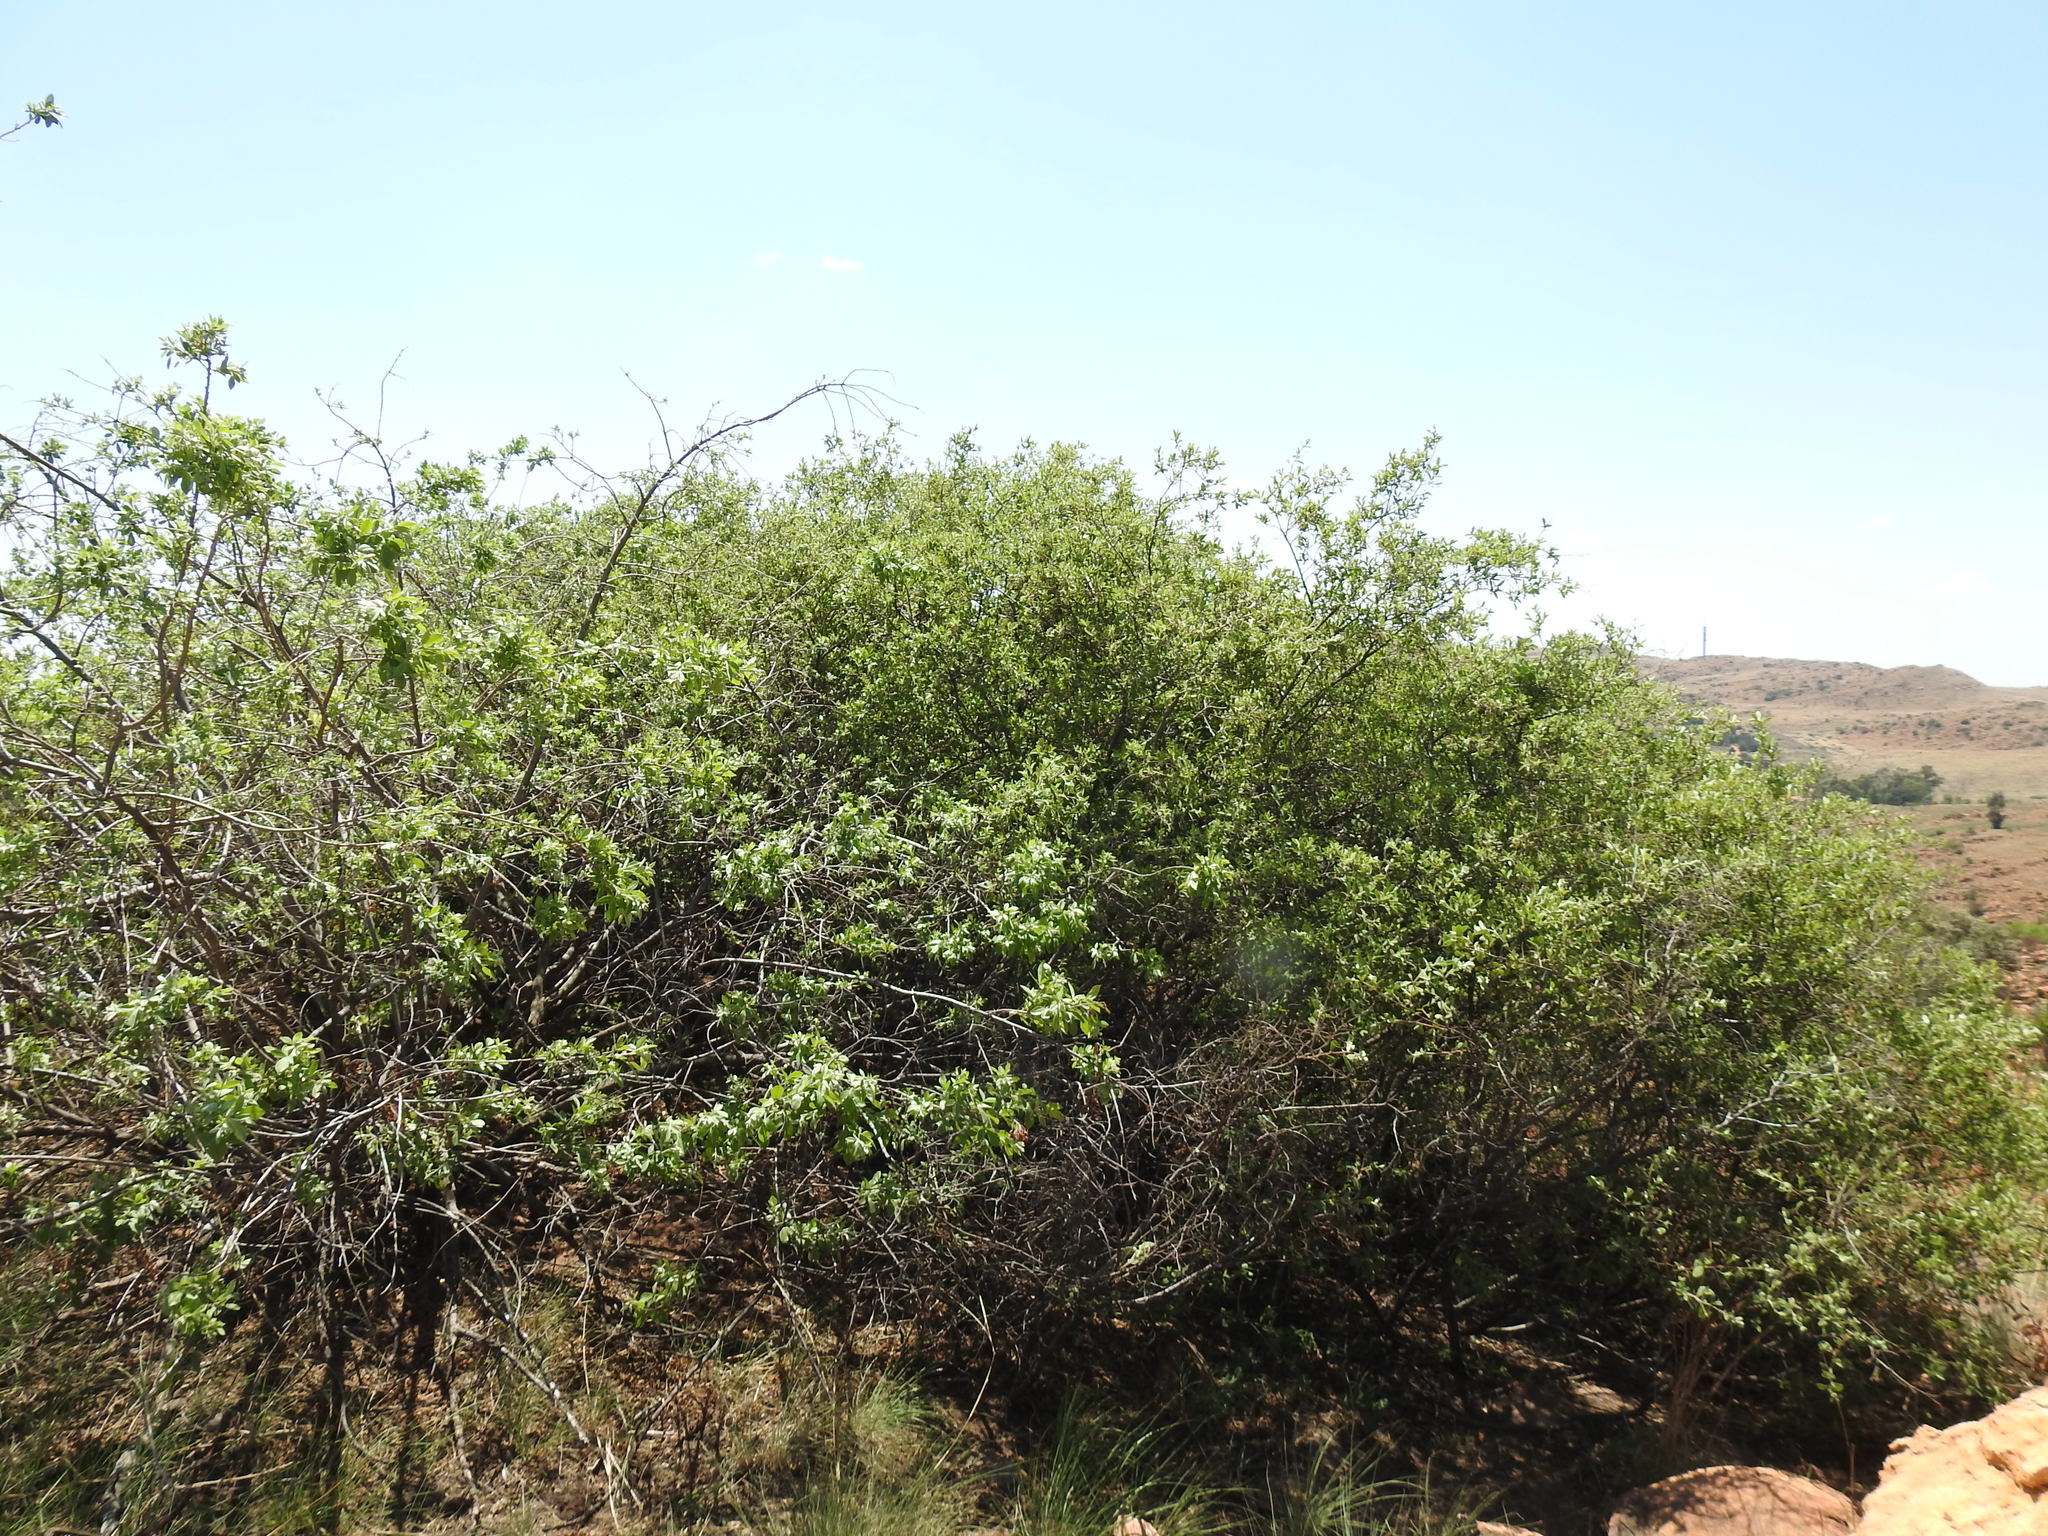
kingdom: Plantae
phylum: Tracheophyta
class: Magnoliopsida
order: Sapindales
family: Anacardiaceae
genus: Searsia
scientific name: Searsia pyroides
